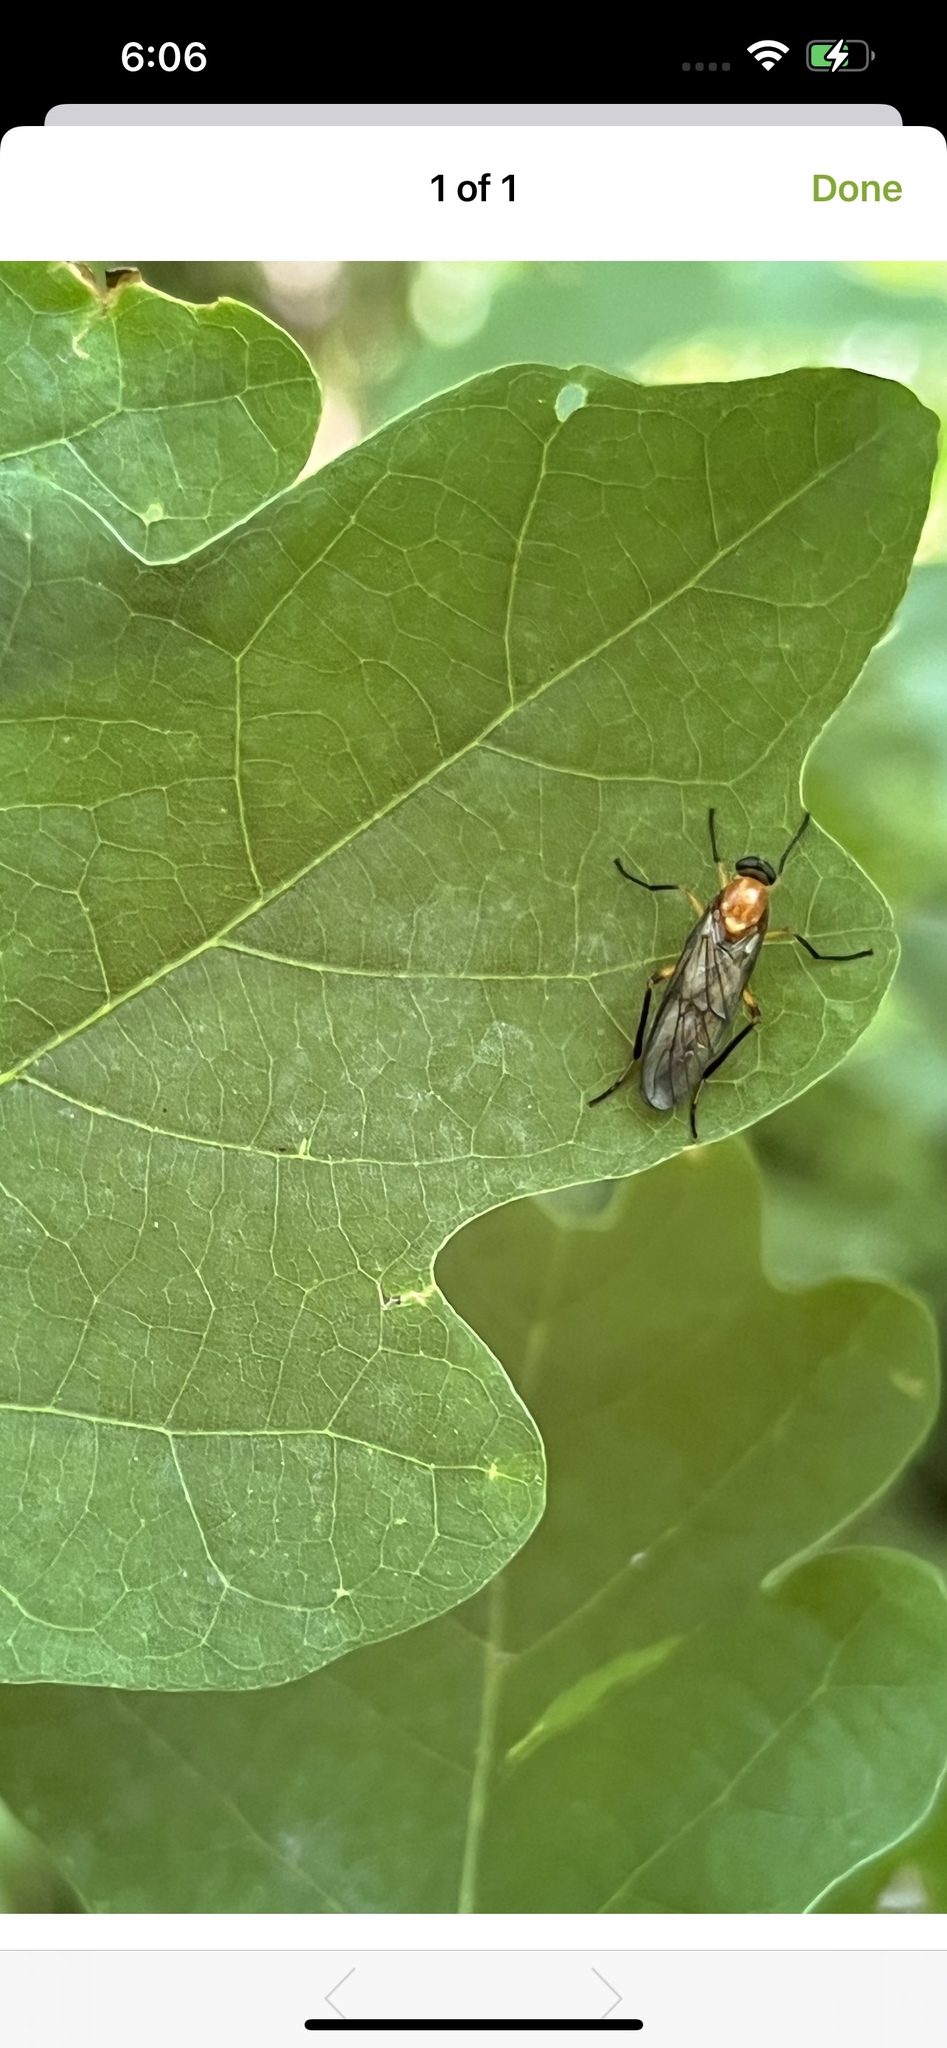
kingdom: Animalia
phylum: Arthropoda
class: Insecta
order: Diptera
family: Xylophagidae
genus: Dialysis
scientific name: Dialysis rufithorax
